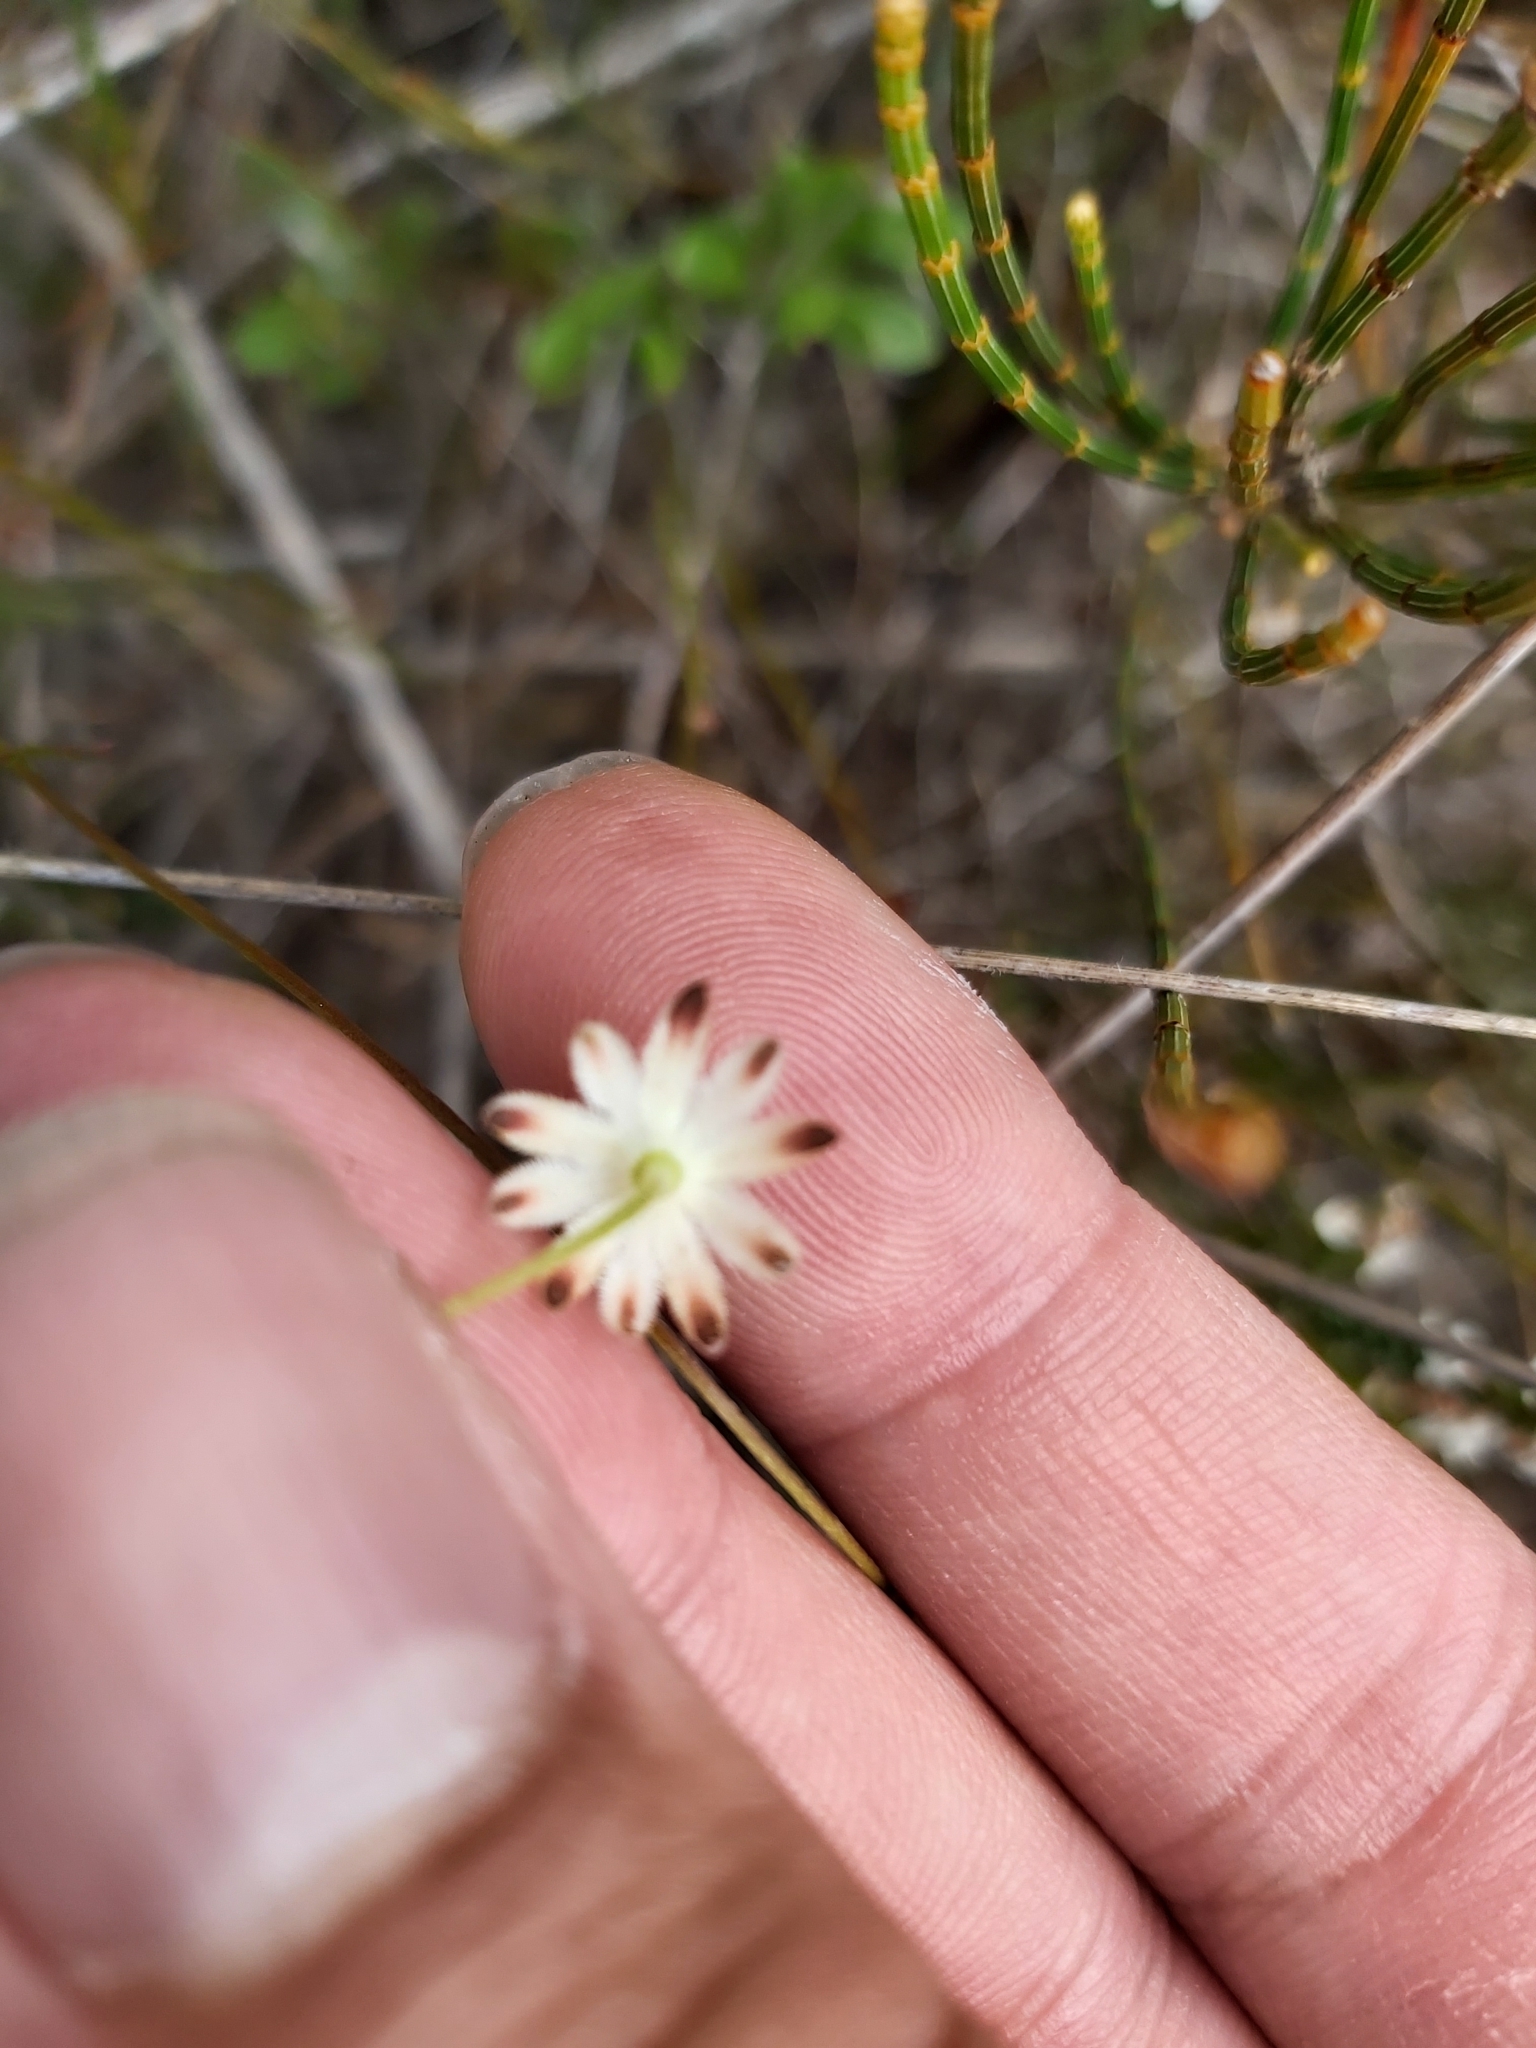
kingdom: Plantae
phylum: Tracheophyta
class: Magnoliopsida
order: Apiales
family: Apiaceae
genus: Actinotus
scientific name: Actinotus minor
